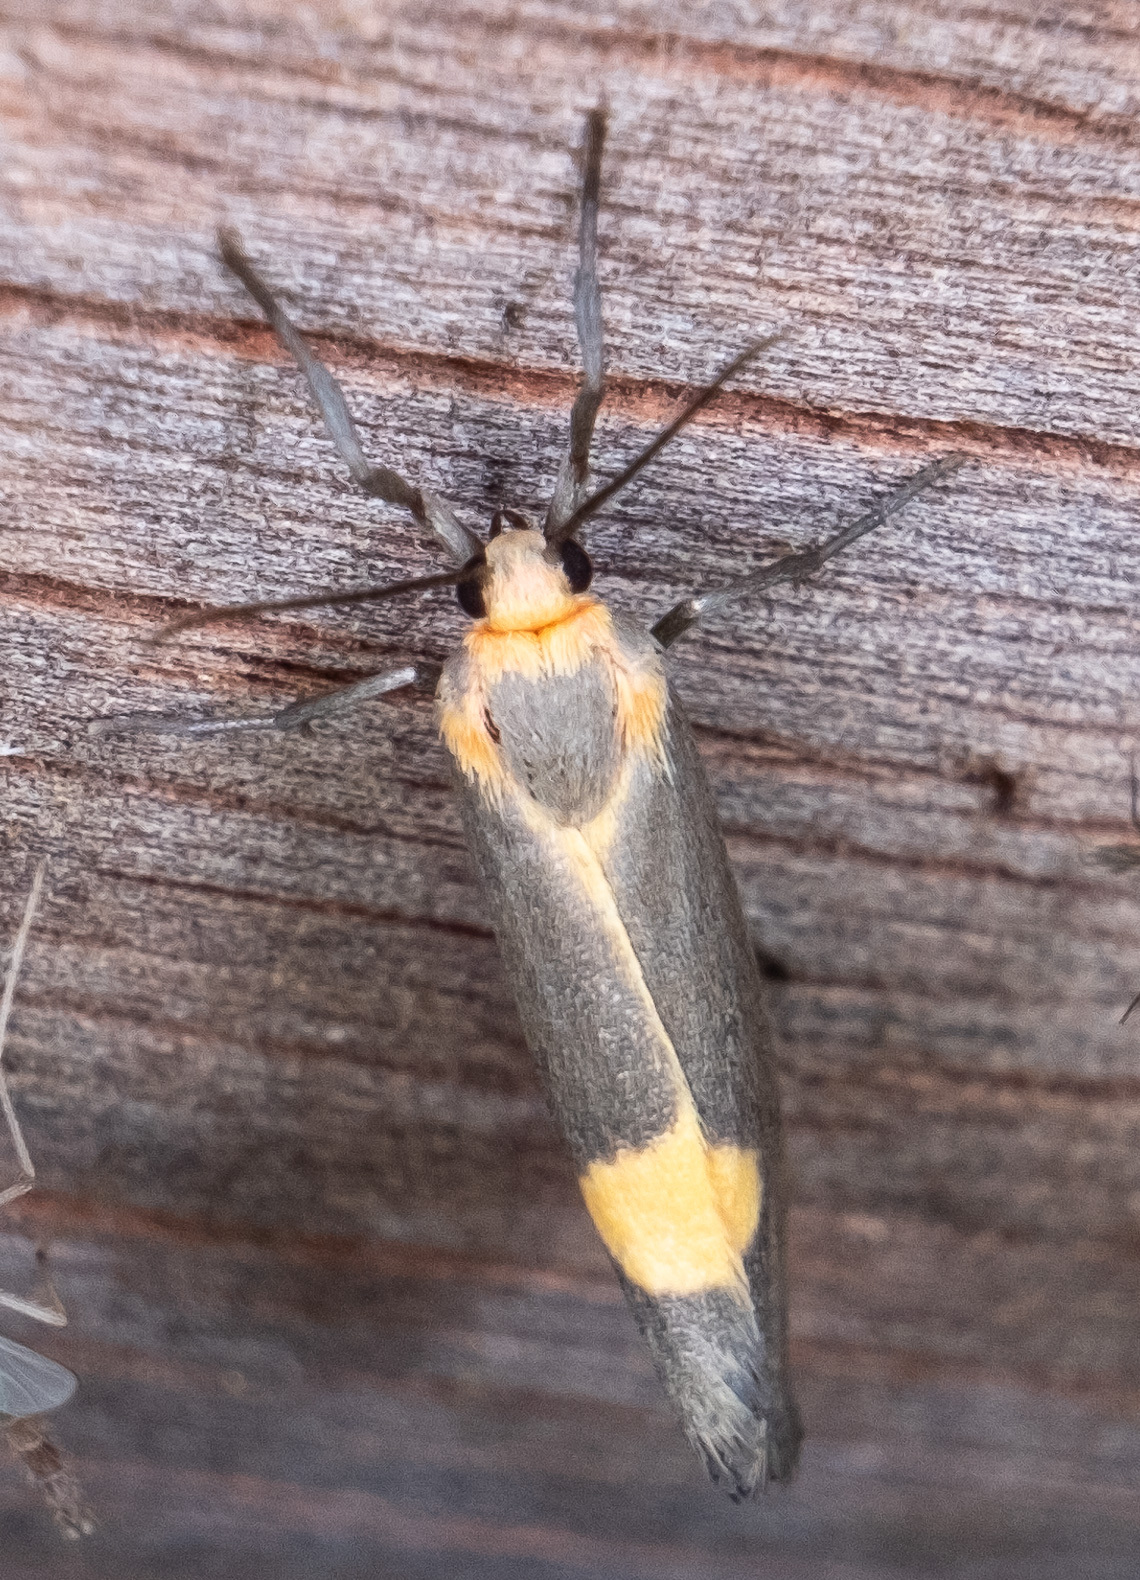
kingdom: Animalia
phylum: Arthropoda
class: Insecta
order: Lepidoptera
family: Erebidae
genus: Cisthene
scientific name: Cisthene plumbea
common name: Lead colored lichen moth
